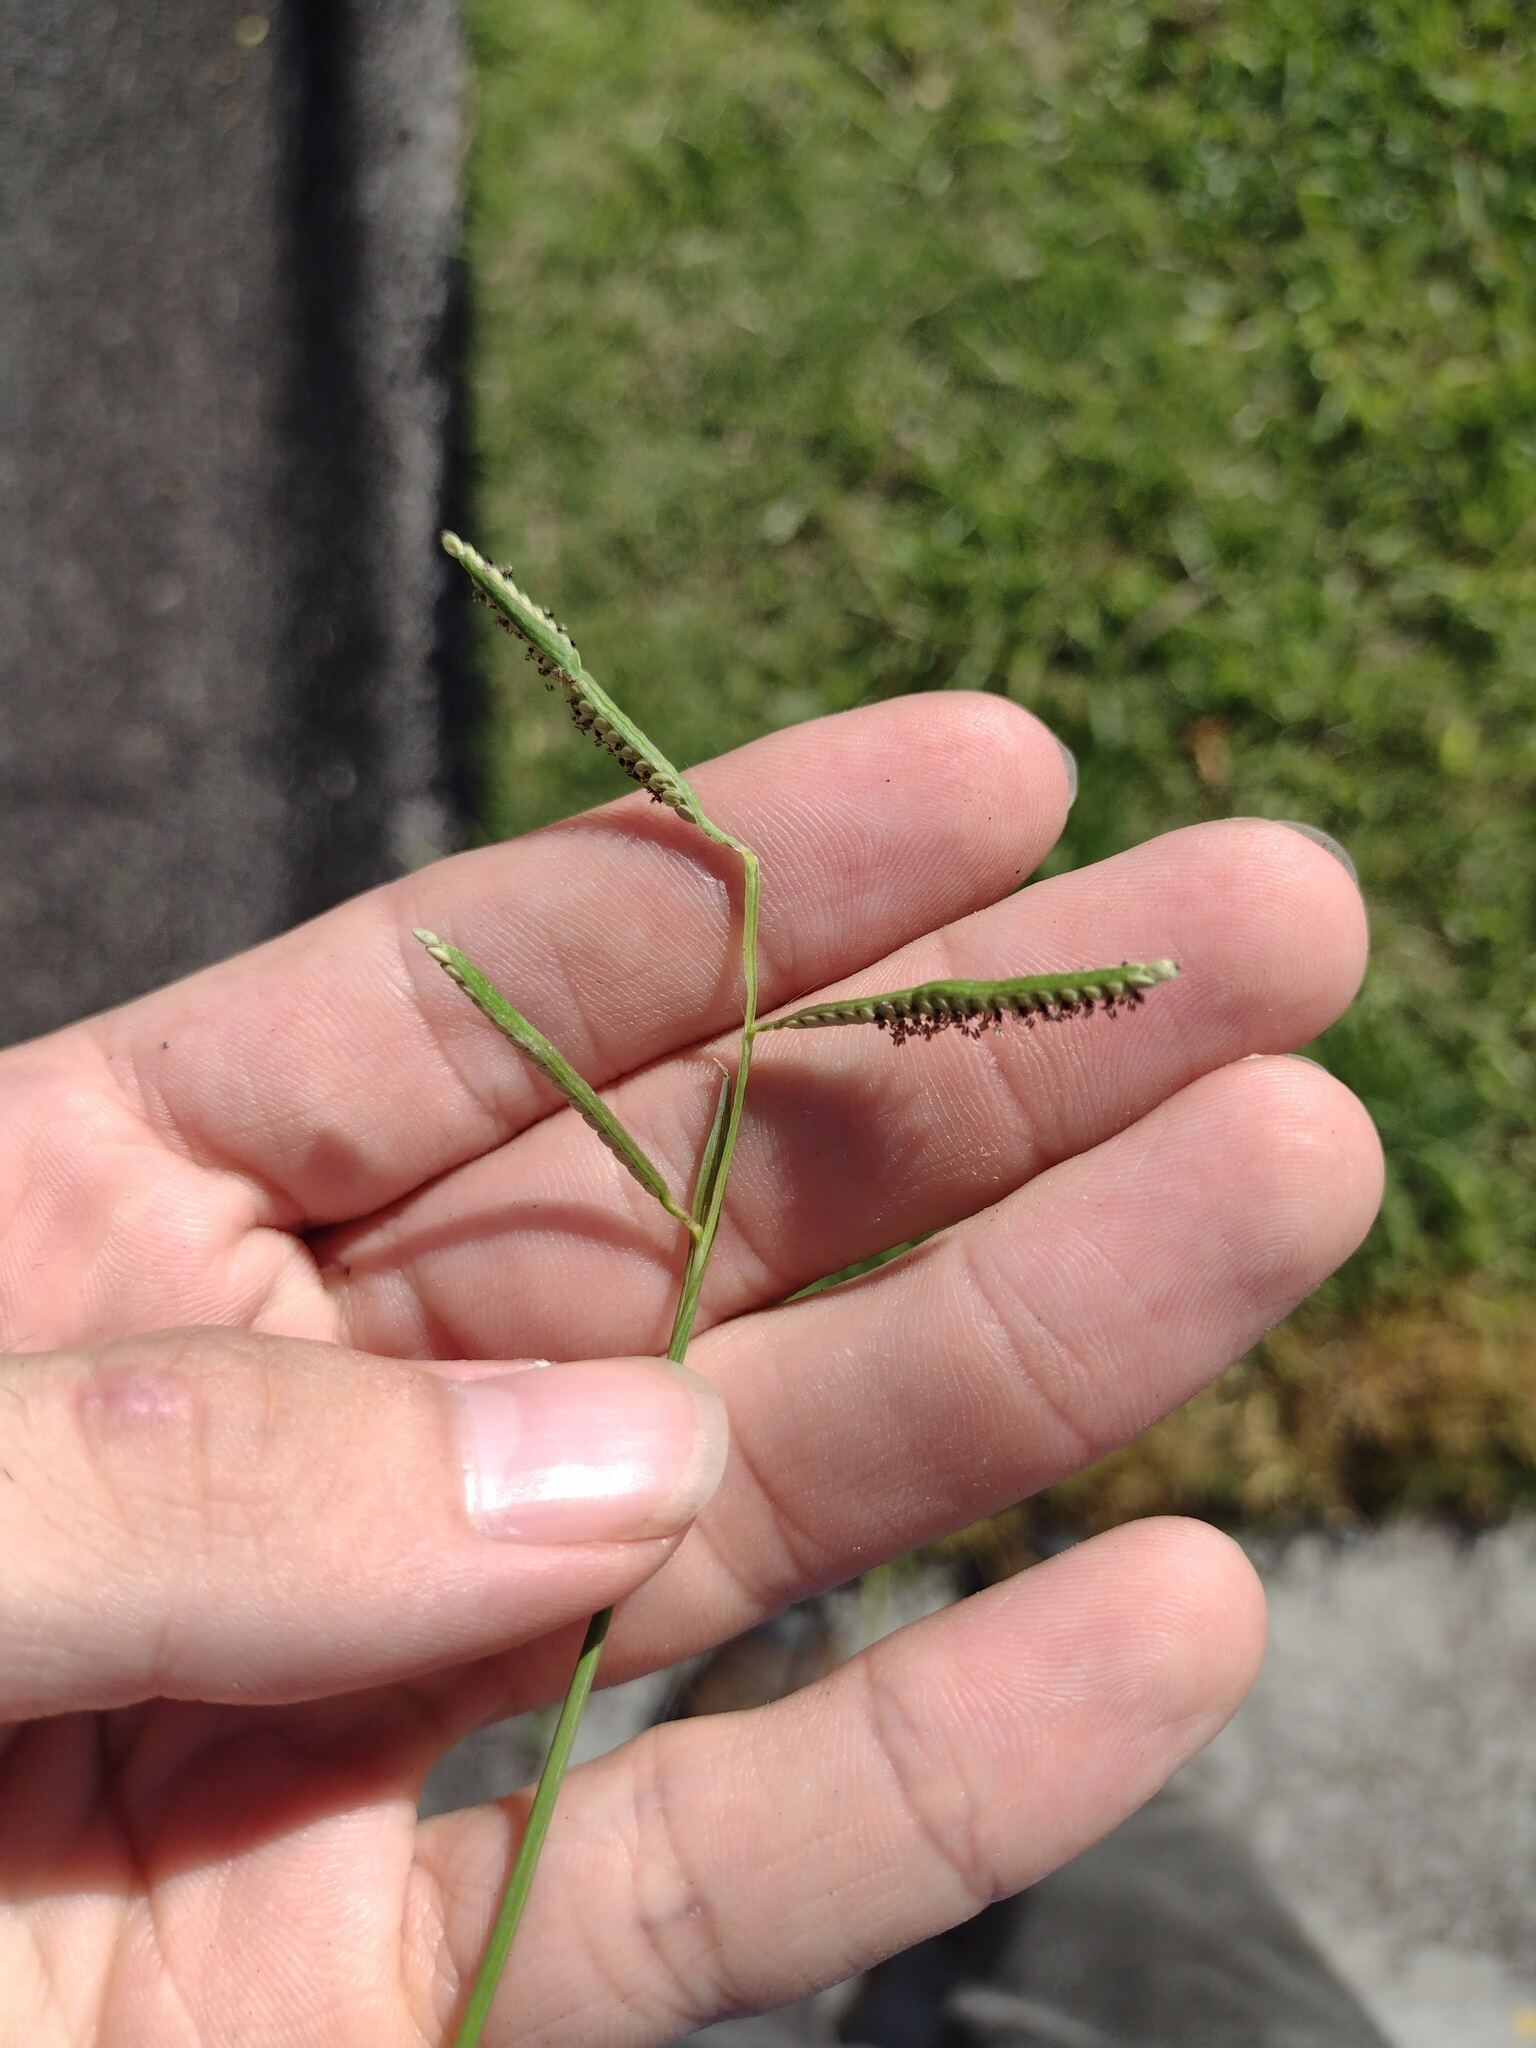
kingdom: Plantae
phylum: Tracheophyta
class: Liliopsida
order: Poales
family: Poaceae
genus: Paspalum
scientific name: Paspalum scrobiculatum
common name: Kodo millet
